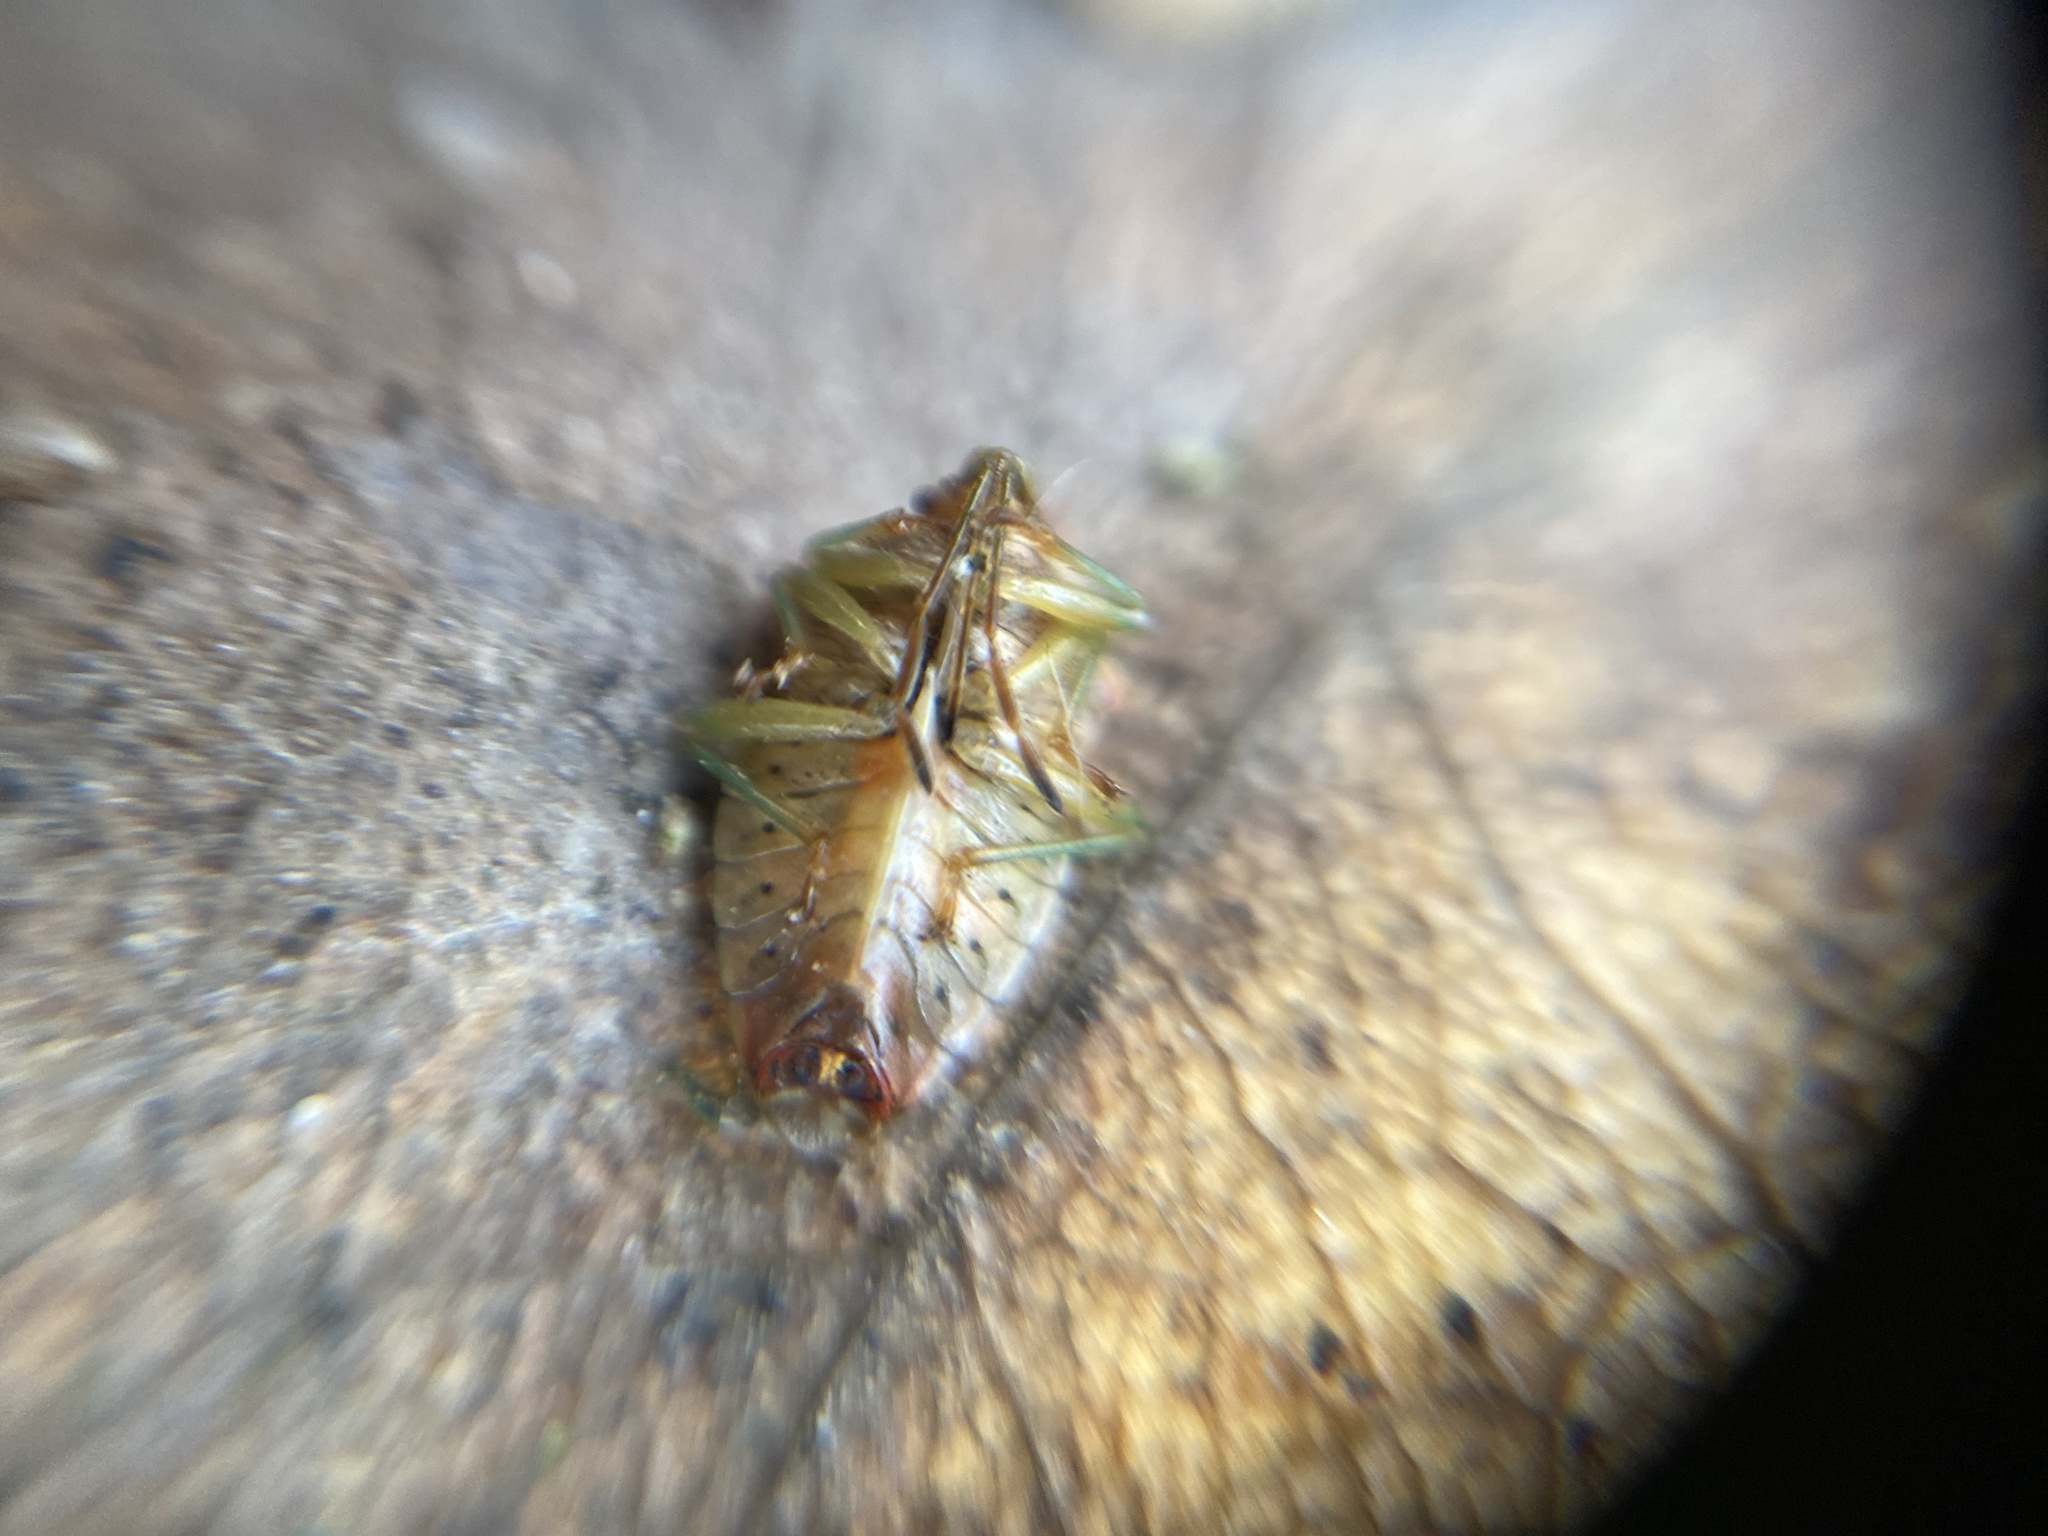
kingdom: Animalia
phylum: Arthropoda
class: Insecta
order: Hemiptera
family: Acanthosomatidae
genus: Elasmucha
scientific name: Elasmucha grisea
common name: Parent bug
